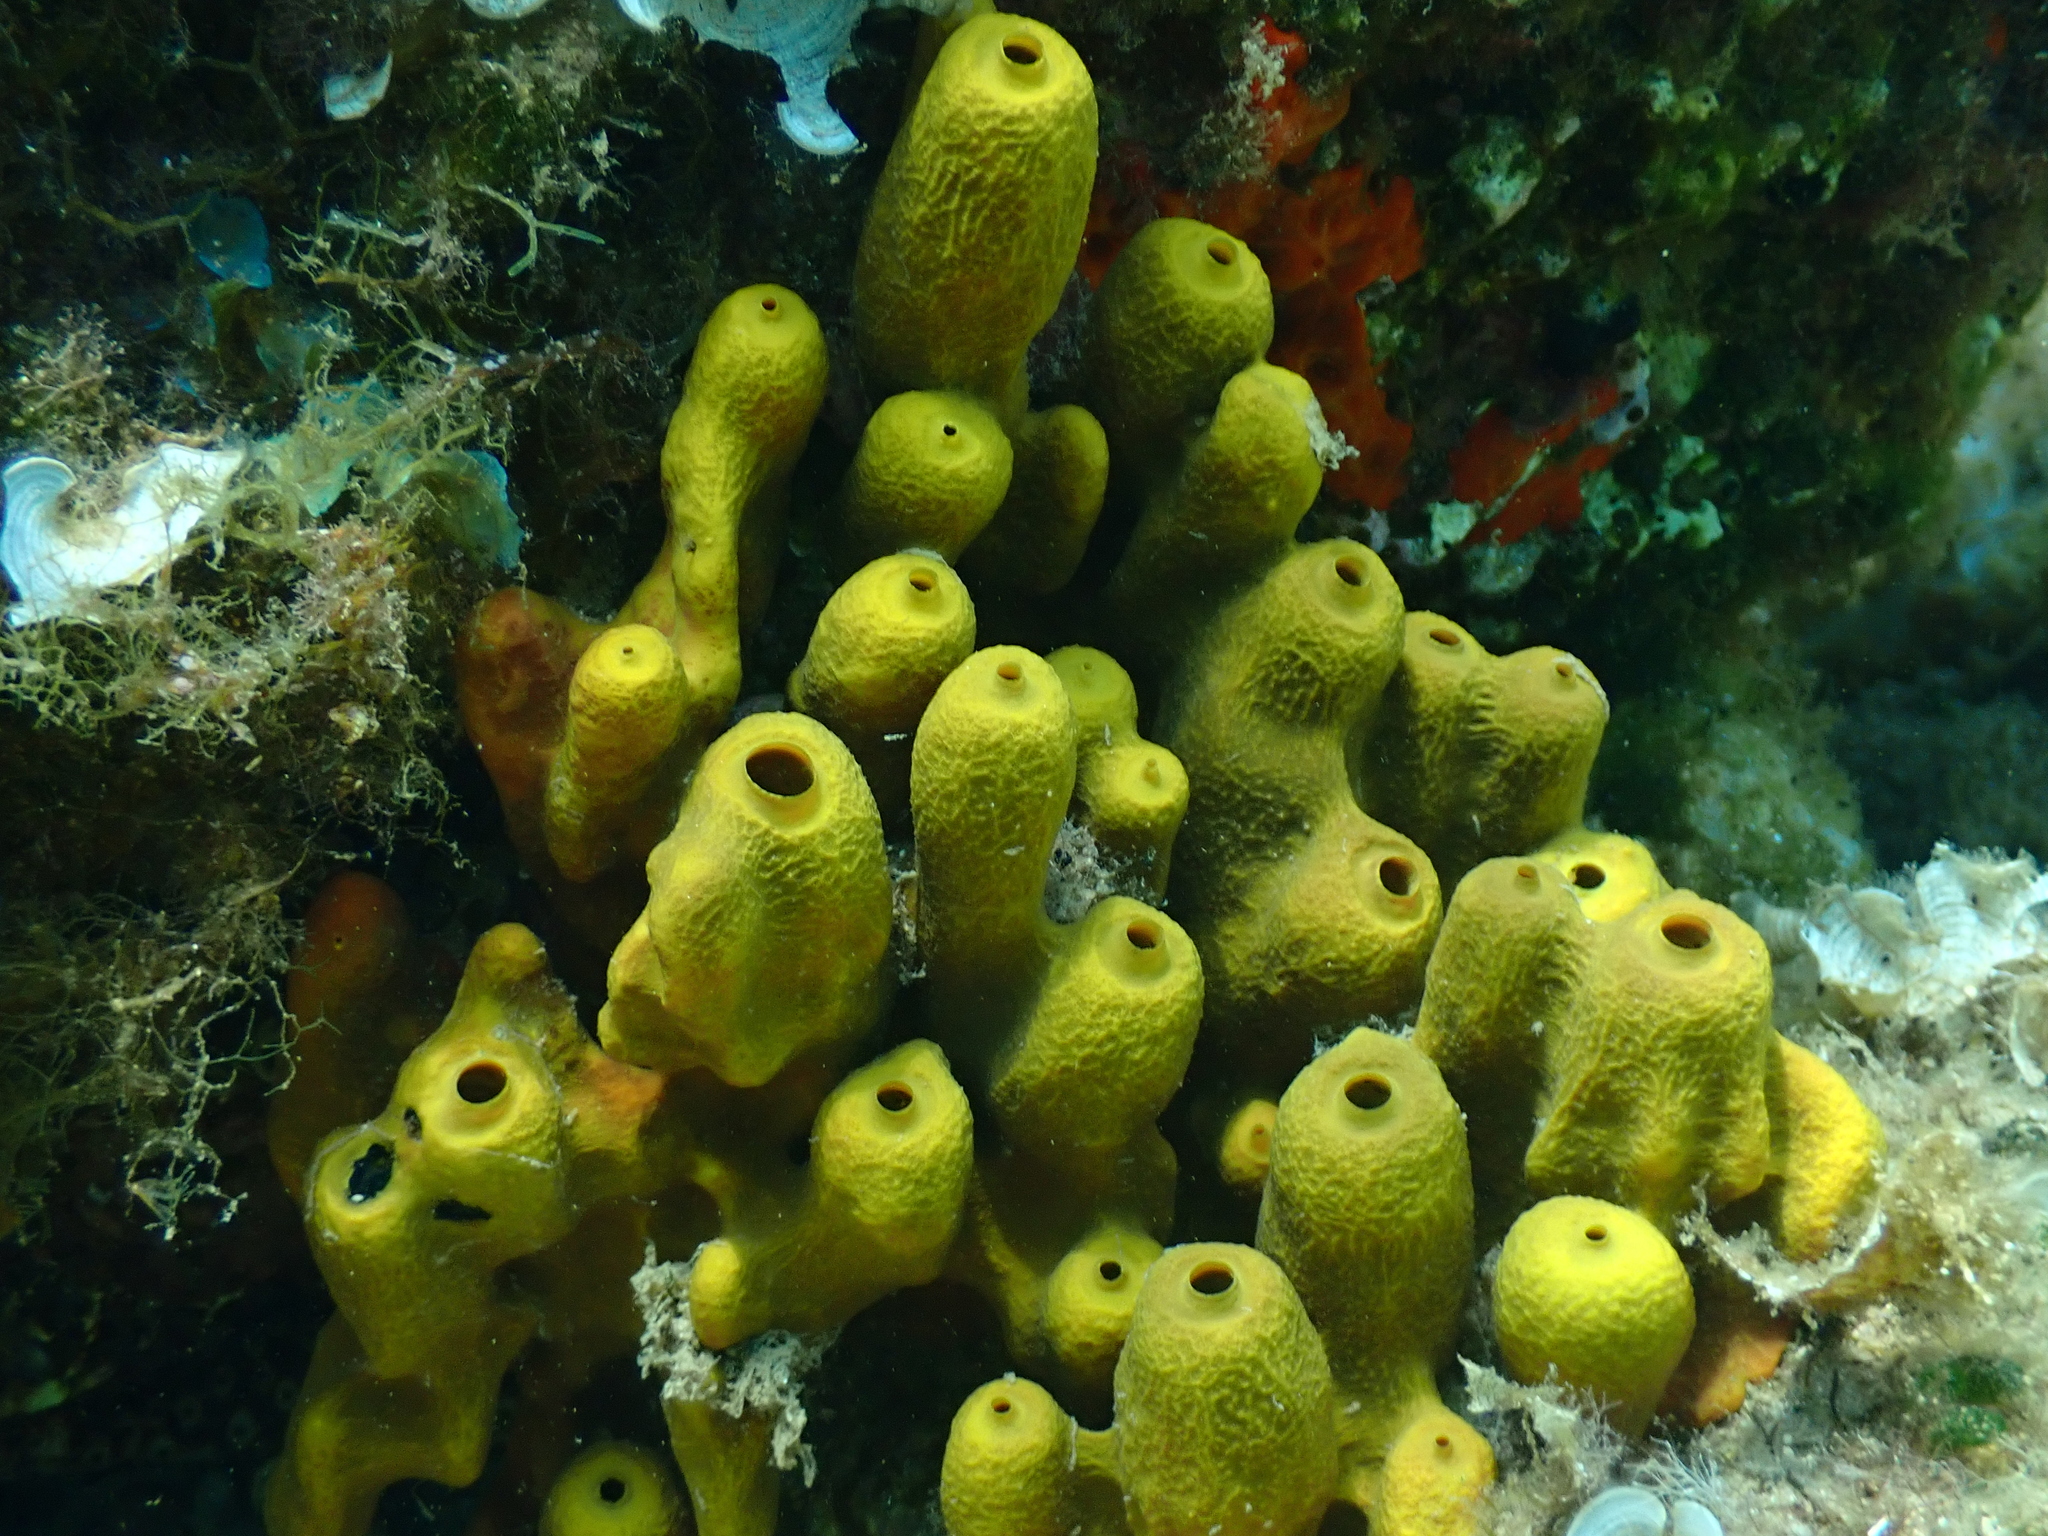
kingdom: Animalia
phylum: Porifera
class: Demospongiae
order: Verongiida
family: Aplysinidae
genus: Aplysina
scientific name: Aplysina aerophoba
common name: Aureate sponge
